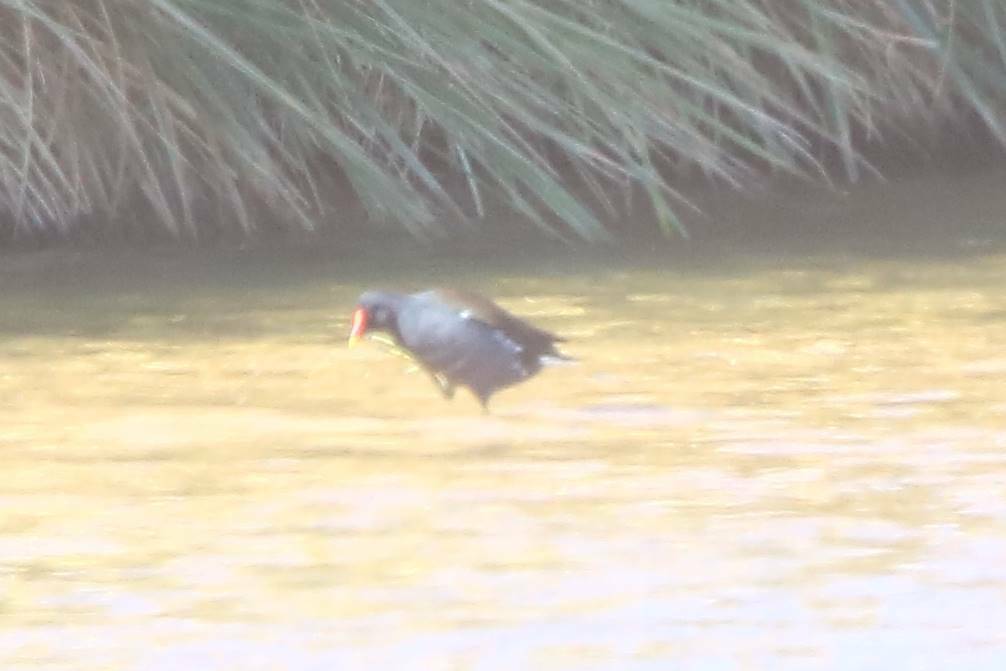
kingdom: Animalia
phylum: Chordata
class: Aves
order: Gruiformes
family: Rallidae
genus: Gallinula
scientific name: Gallinula chloropus
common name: Common moorhen
